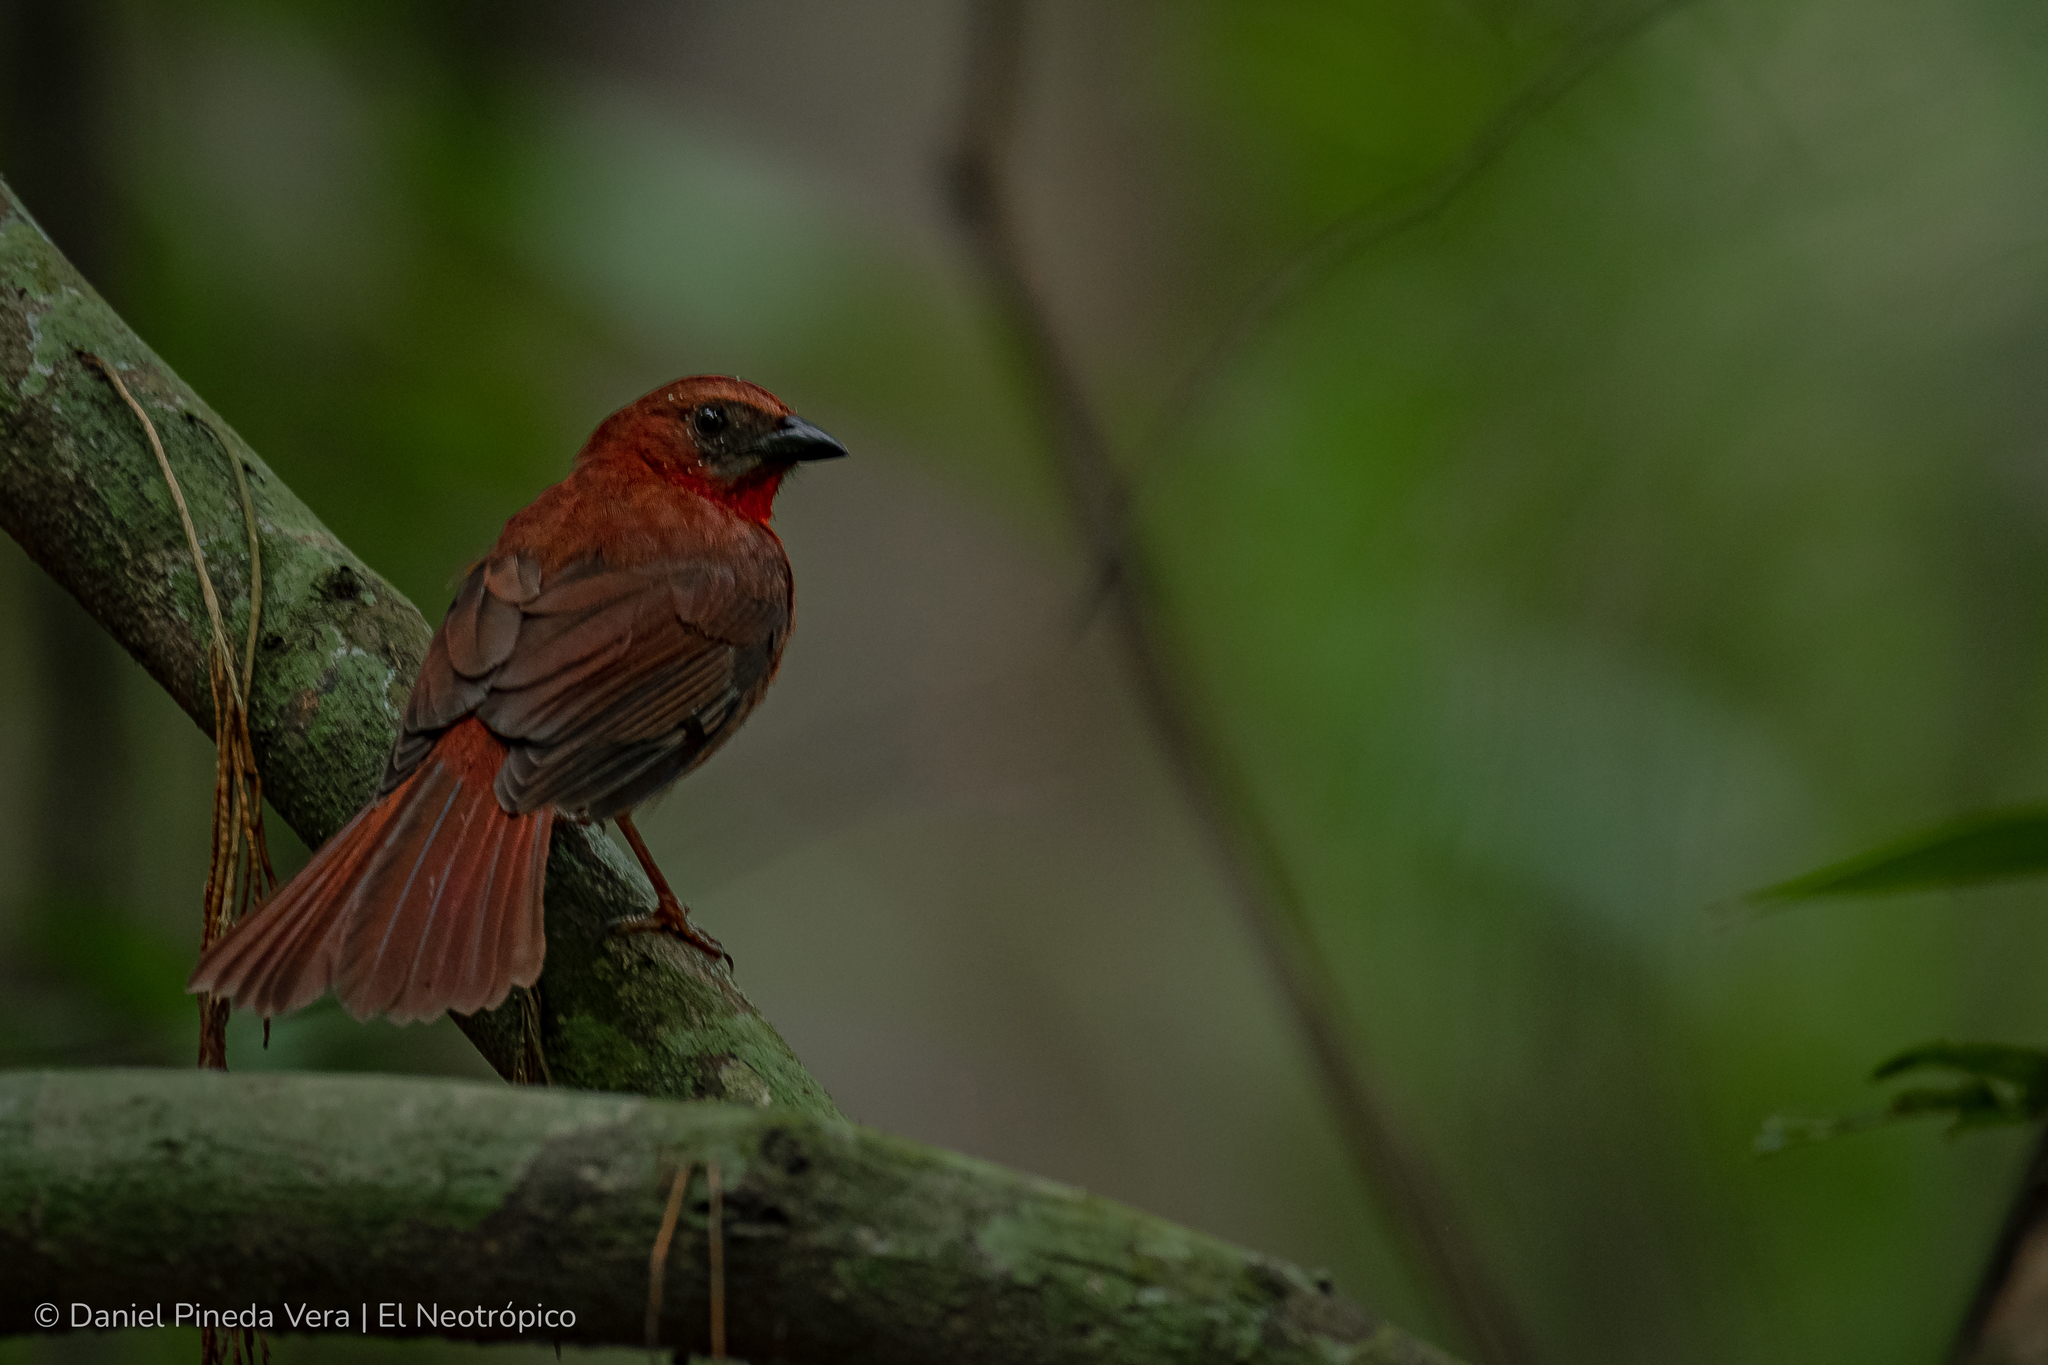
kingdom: Animalia
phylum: Chordata
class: Aves
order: Passeriformes
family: Cardinalidae
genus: Habia
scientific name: Habia fuscicauda
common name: Red-throated ant-tanager
